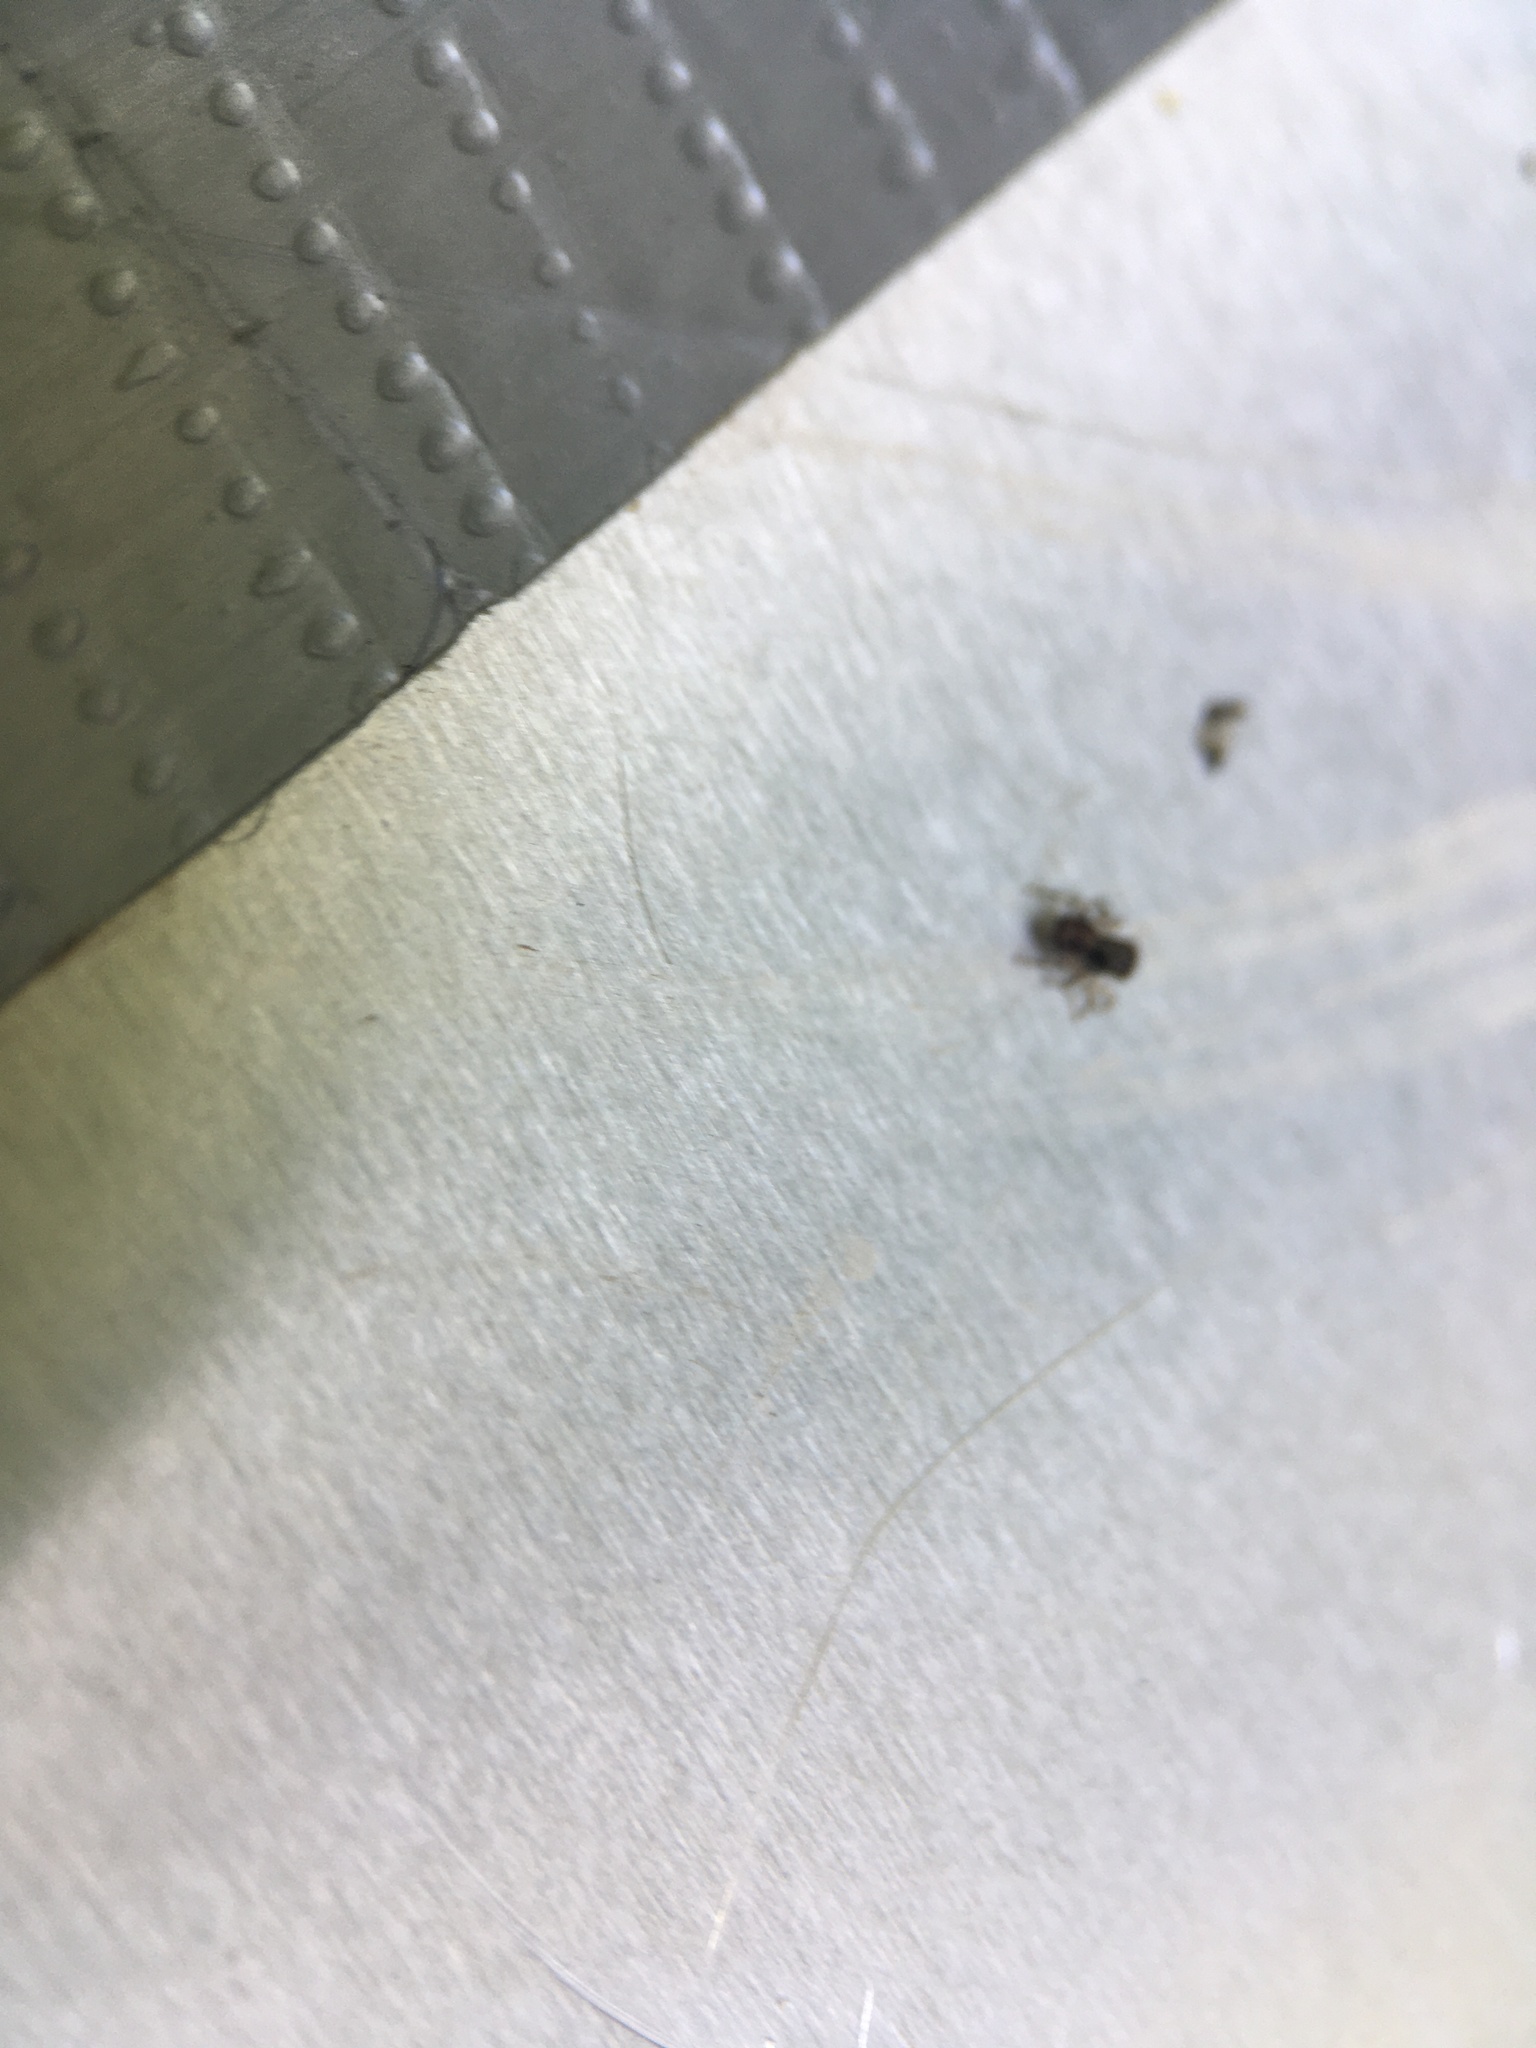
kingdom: Animalia
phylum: Arthropoda
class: Arachnida
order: Araneae
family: Salticidae
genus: Naphrys
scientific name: Naphrys pulex
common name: Flea jumping spider
